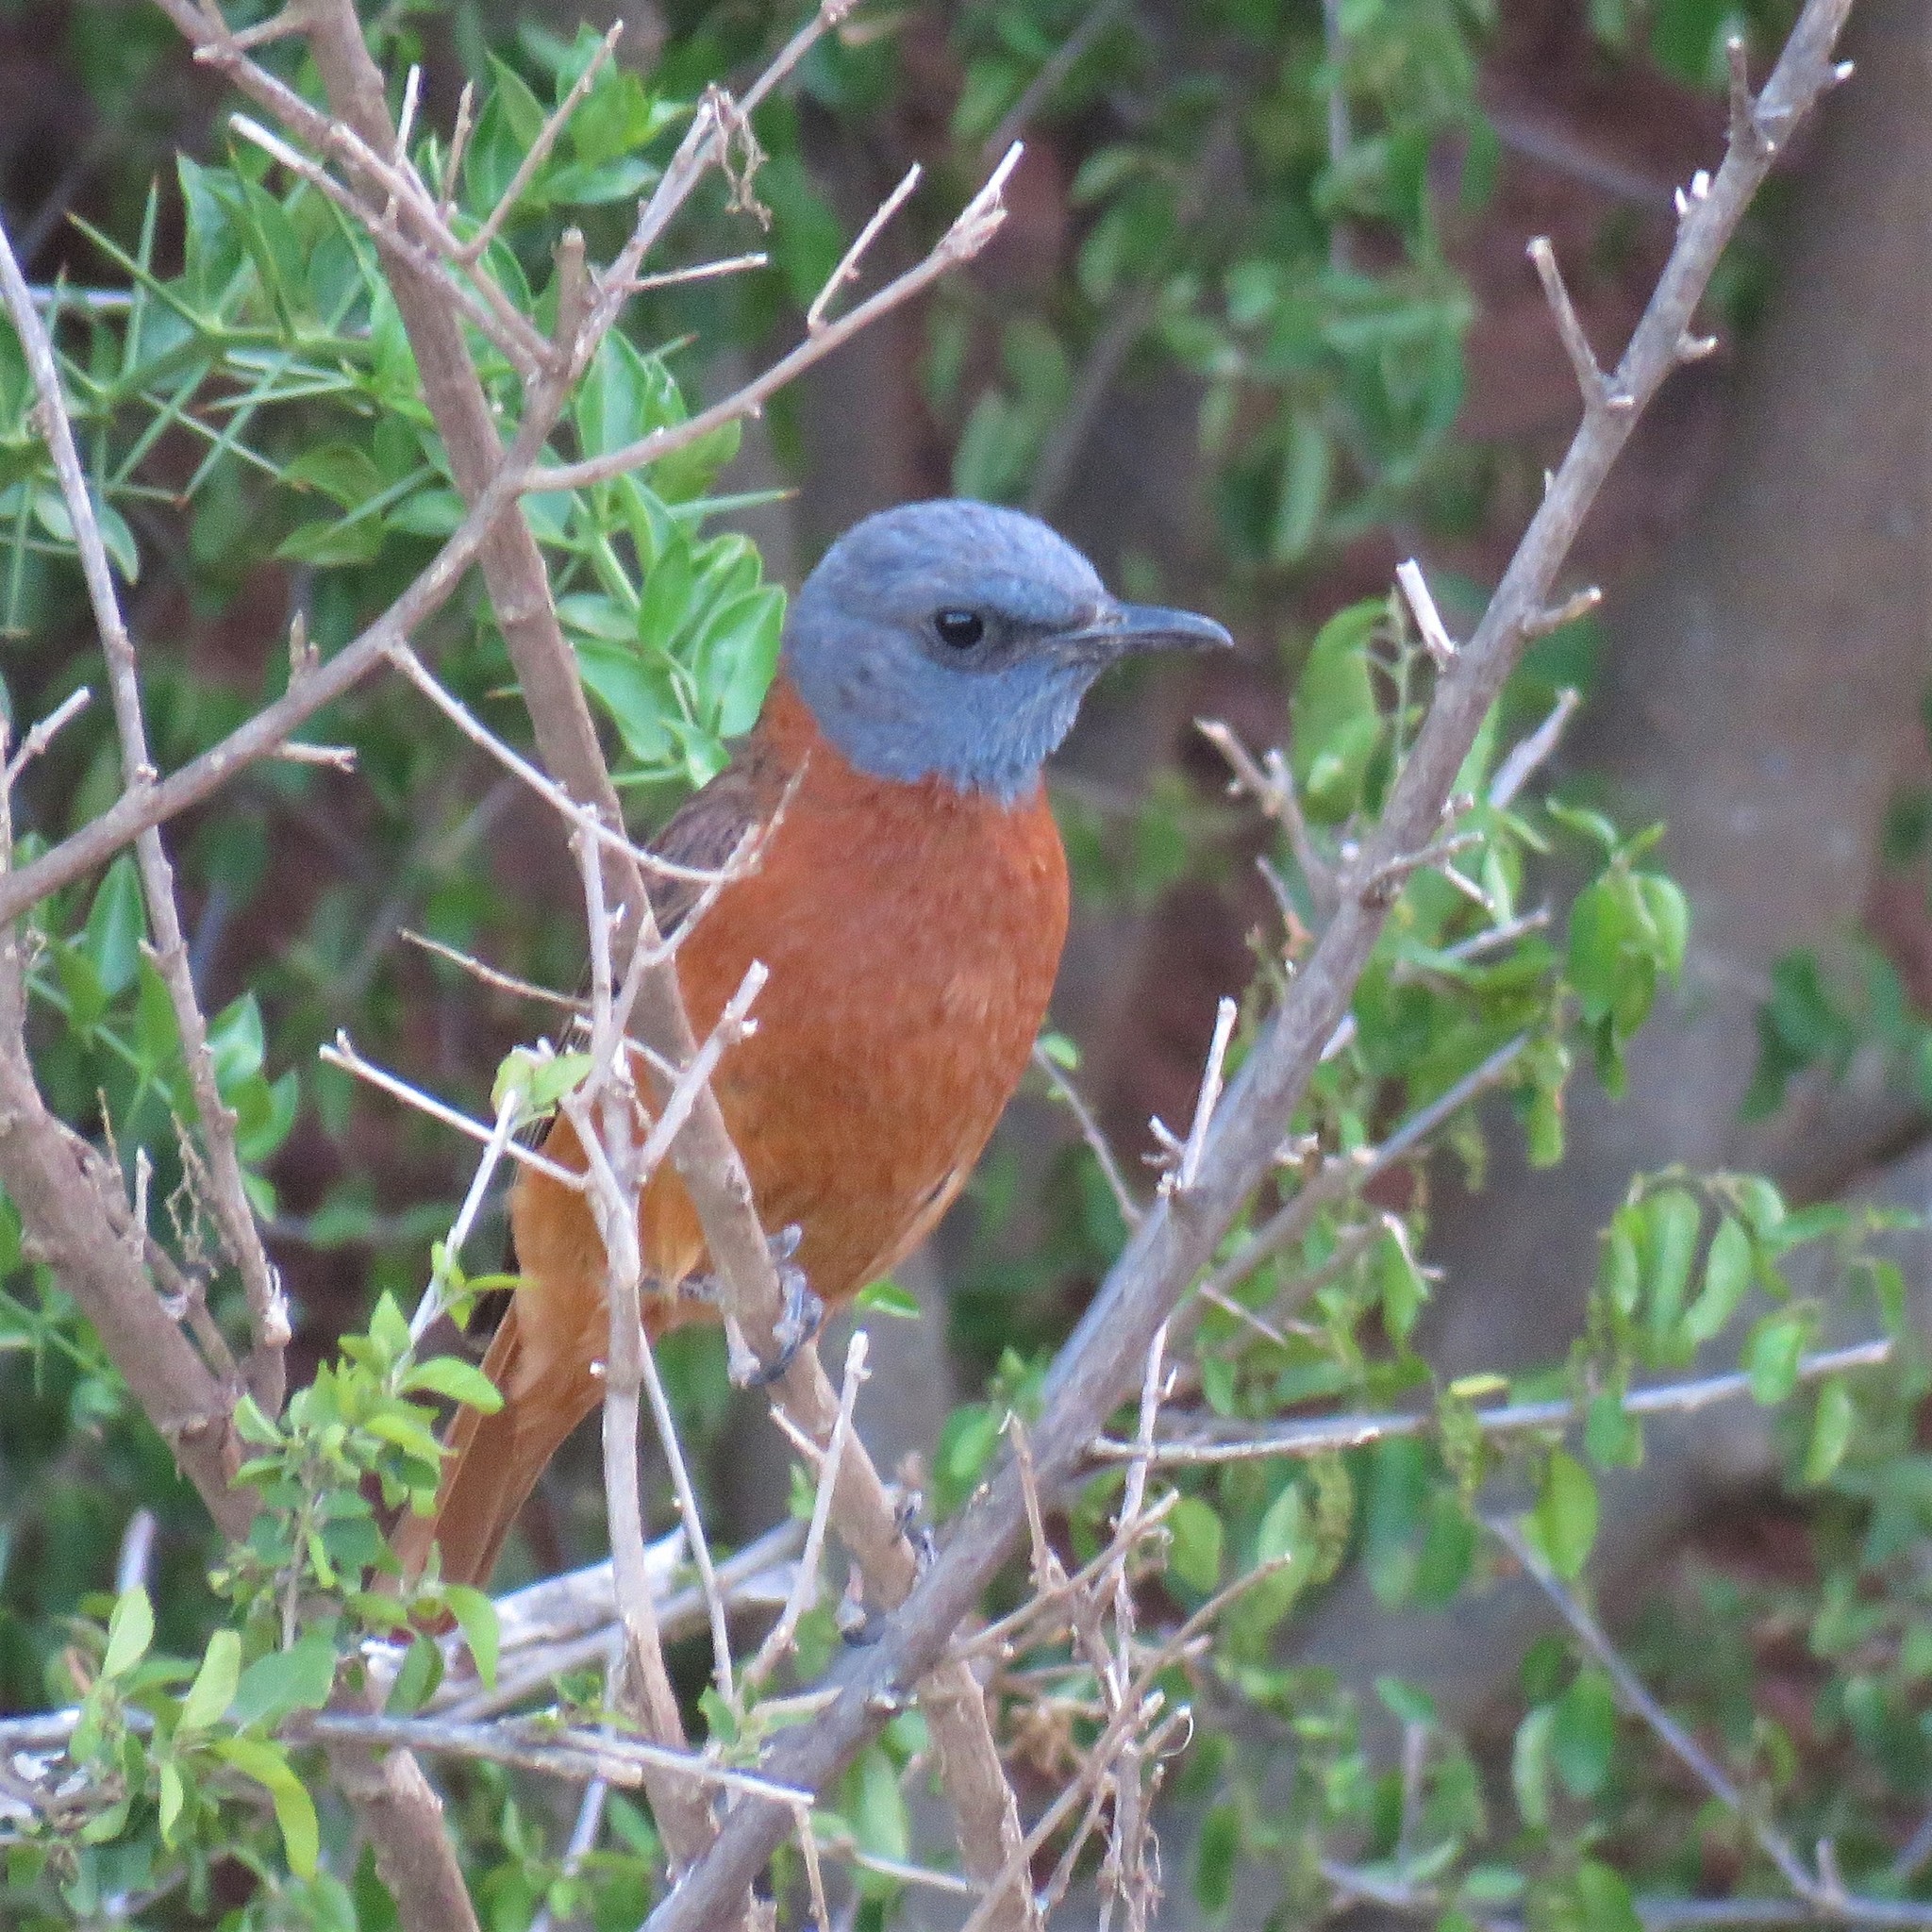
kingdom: Animalia
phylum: Chordata
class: Aves
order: Passeriformes
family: Muscicapidae
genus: Monticola
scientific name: Monticola rupestris
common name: Cape rock thrush
